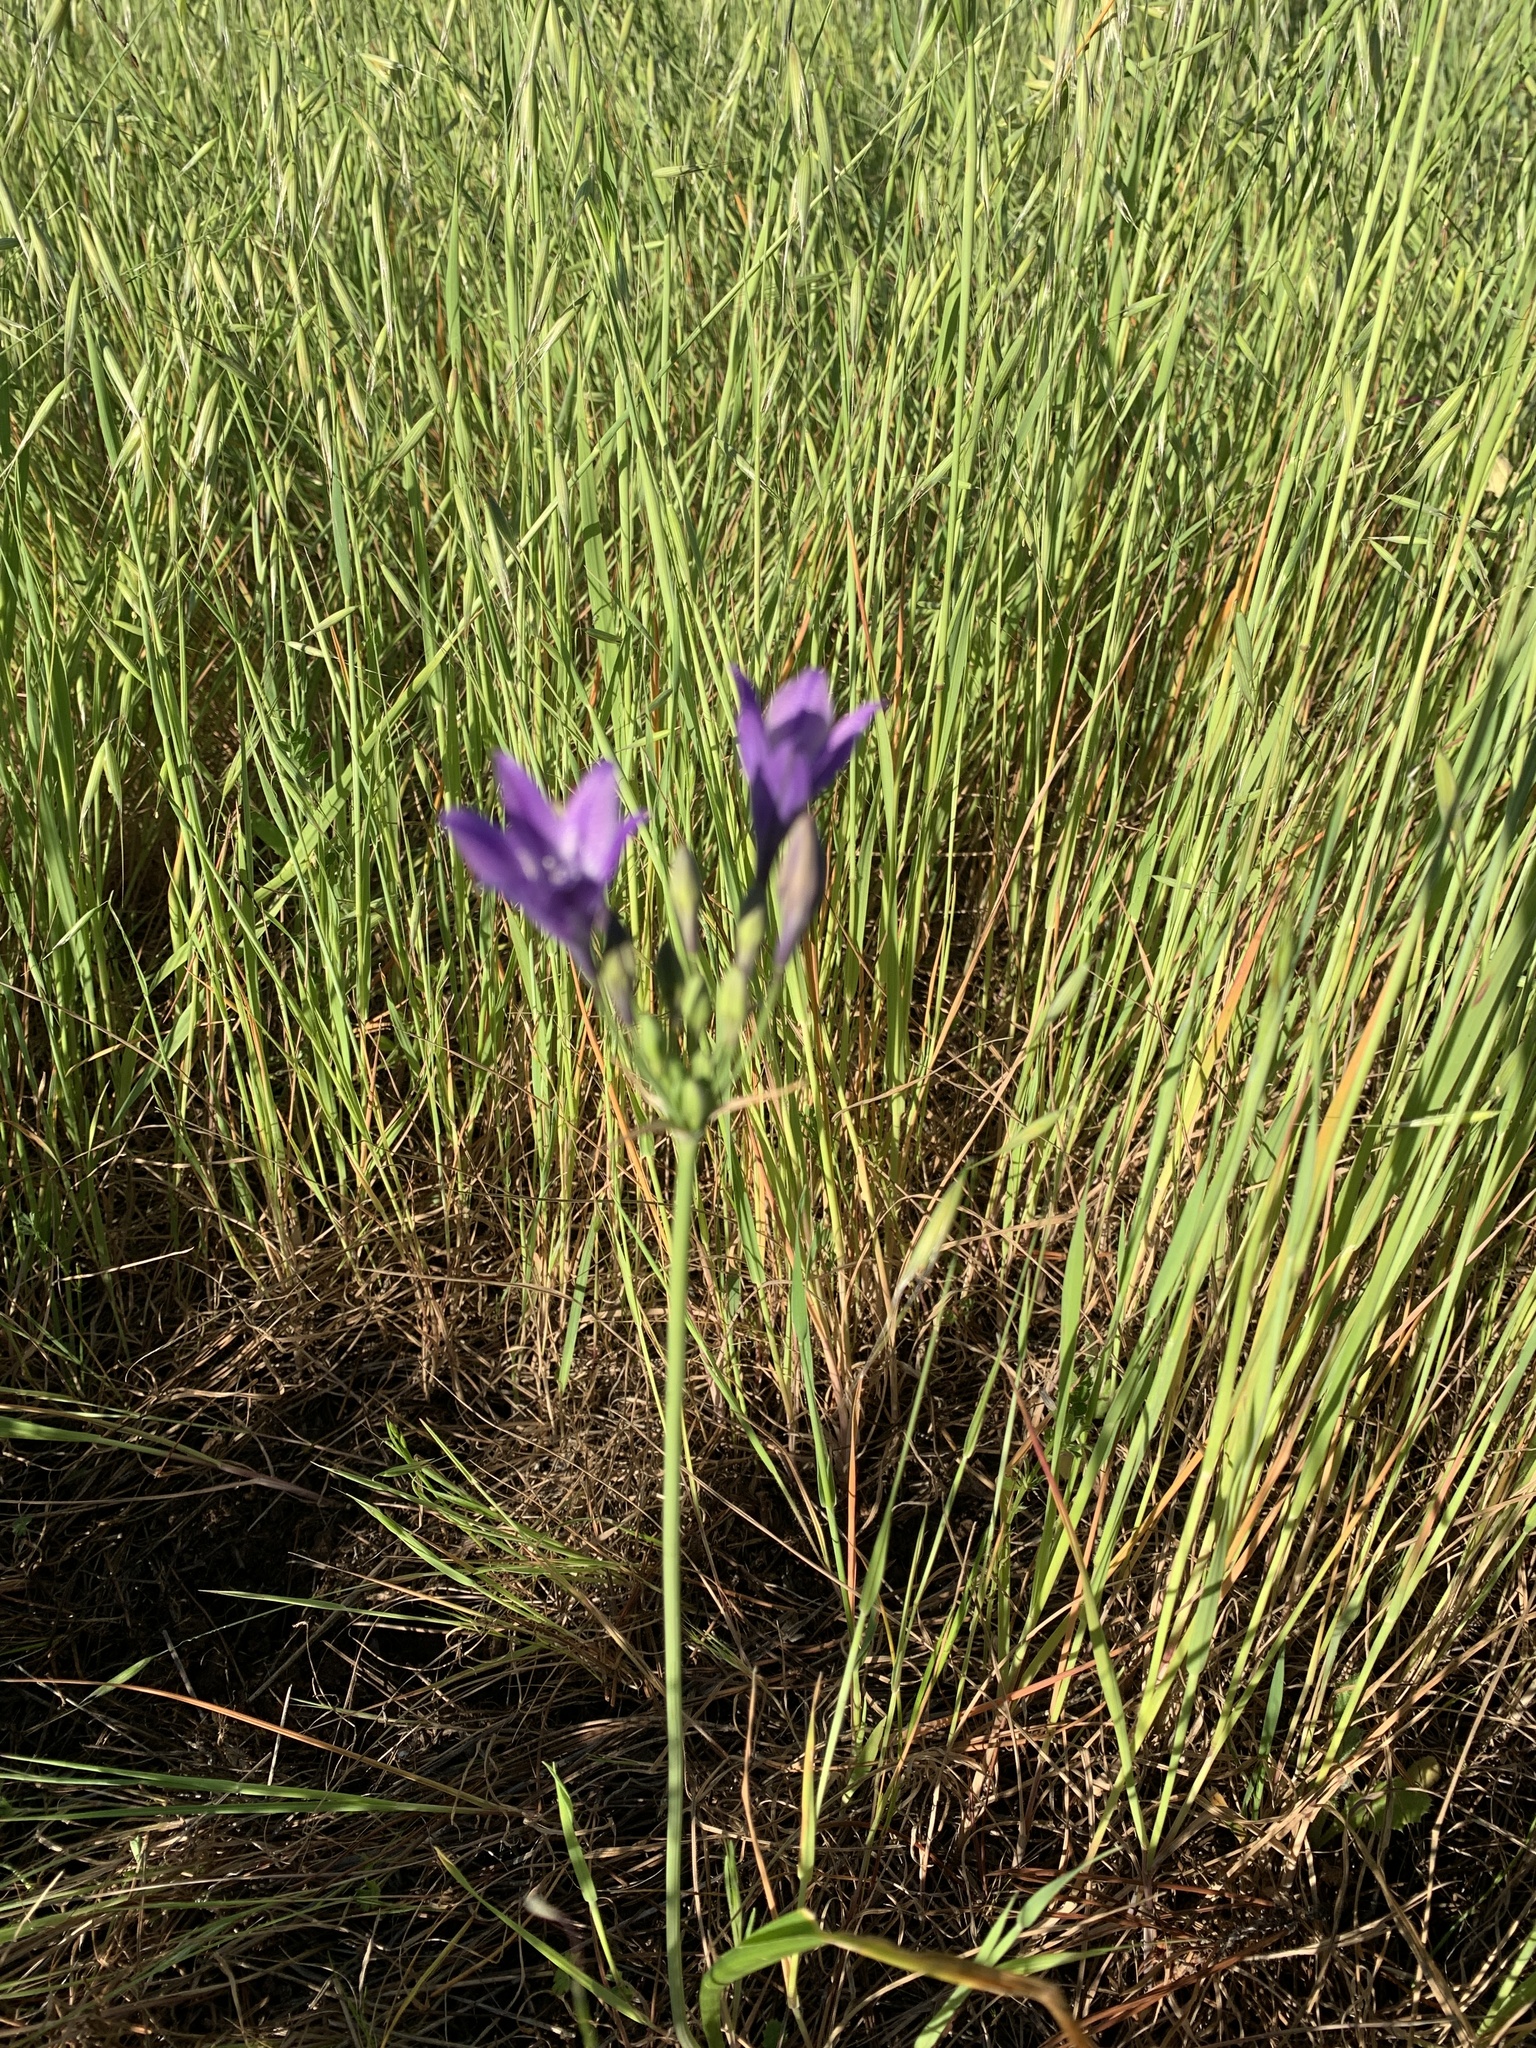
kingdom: Plantae
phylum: Tracheophyta
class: Liliopsida
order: Asparagales
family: Asparagaceae
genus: Triteleia
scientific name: Triteleia laxa
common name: Triplet-lily
